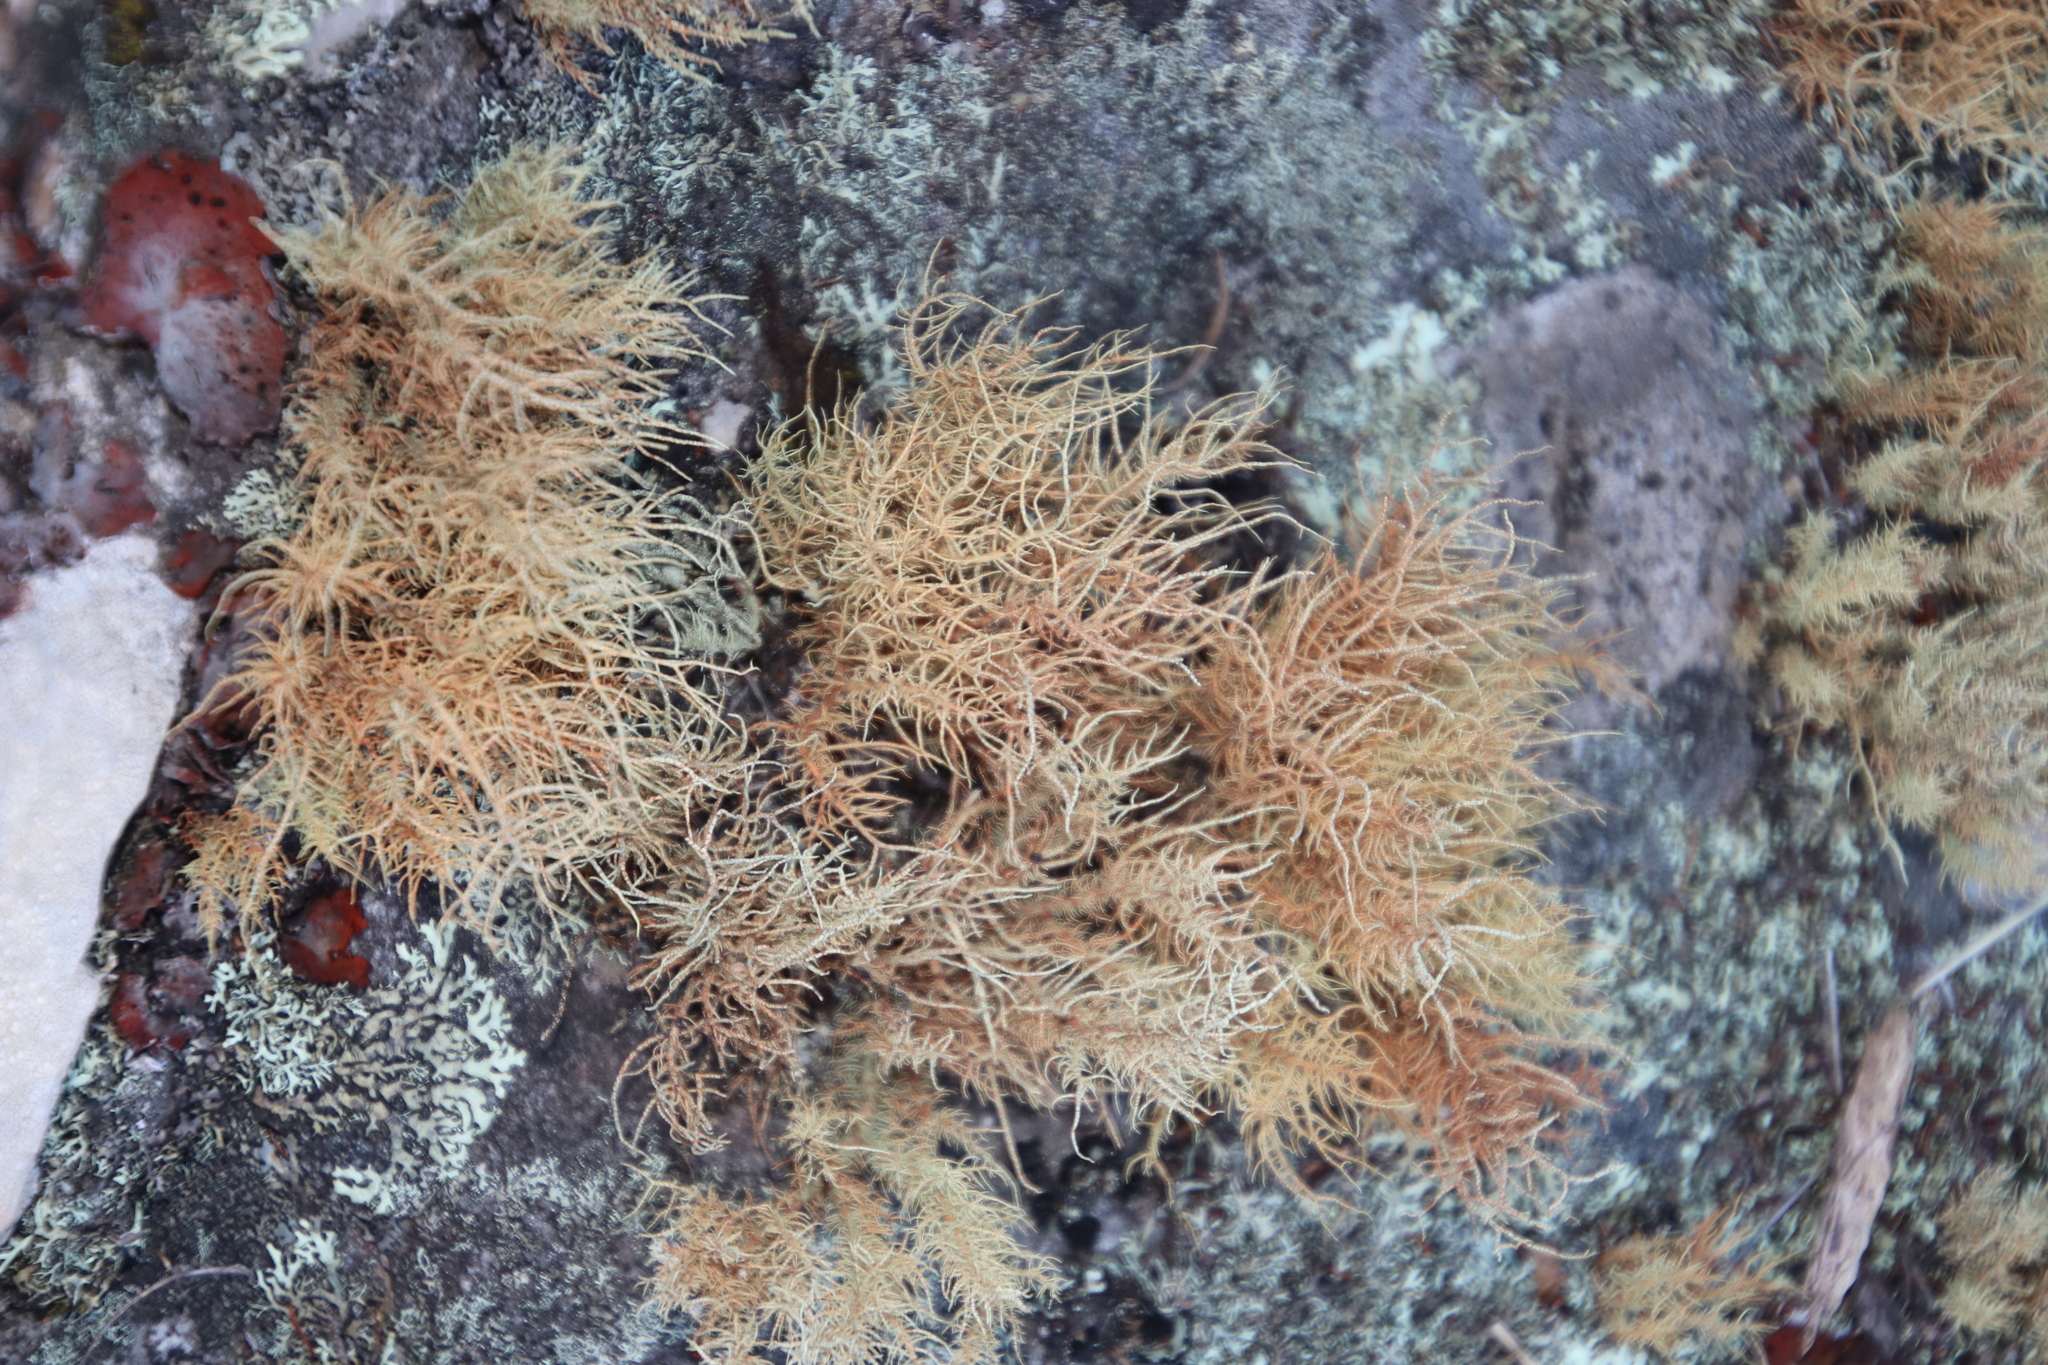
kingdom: Fungi
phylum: Ascomycota
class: Lecanoromycetes
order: Lecanorales
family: Parmeliaceae
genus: Usnea
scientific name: Usnea maculata
